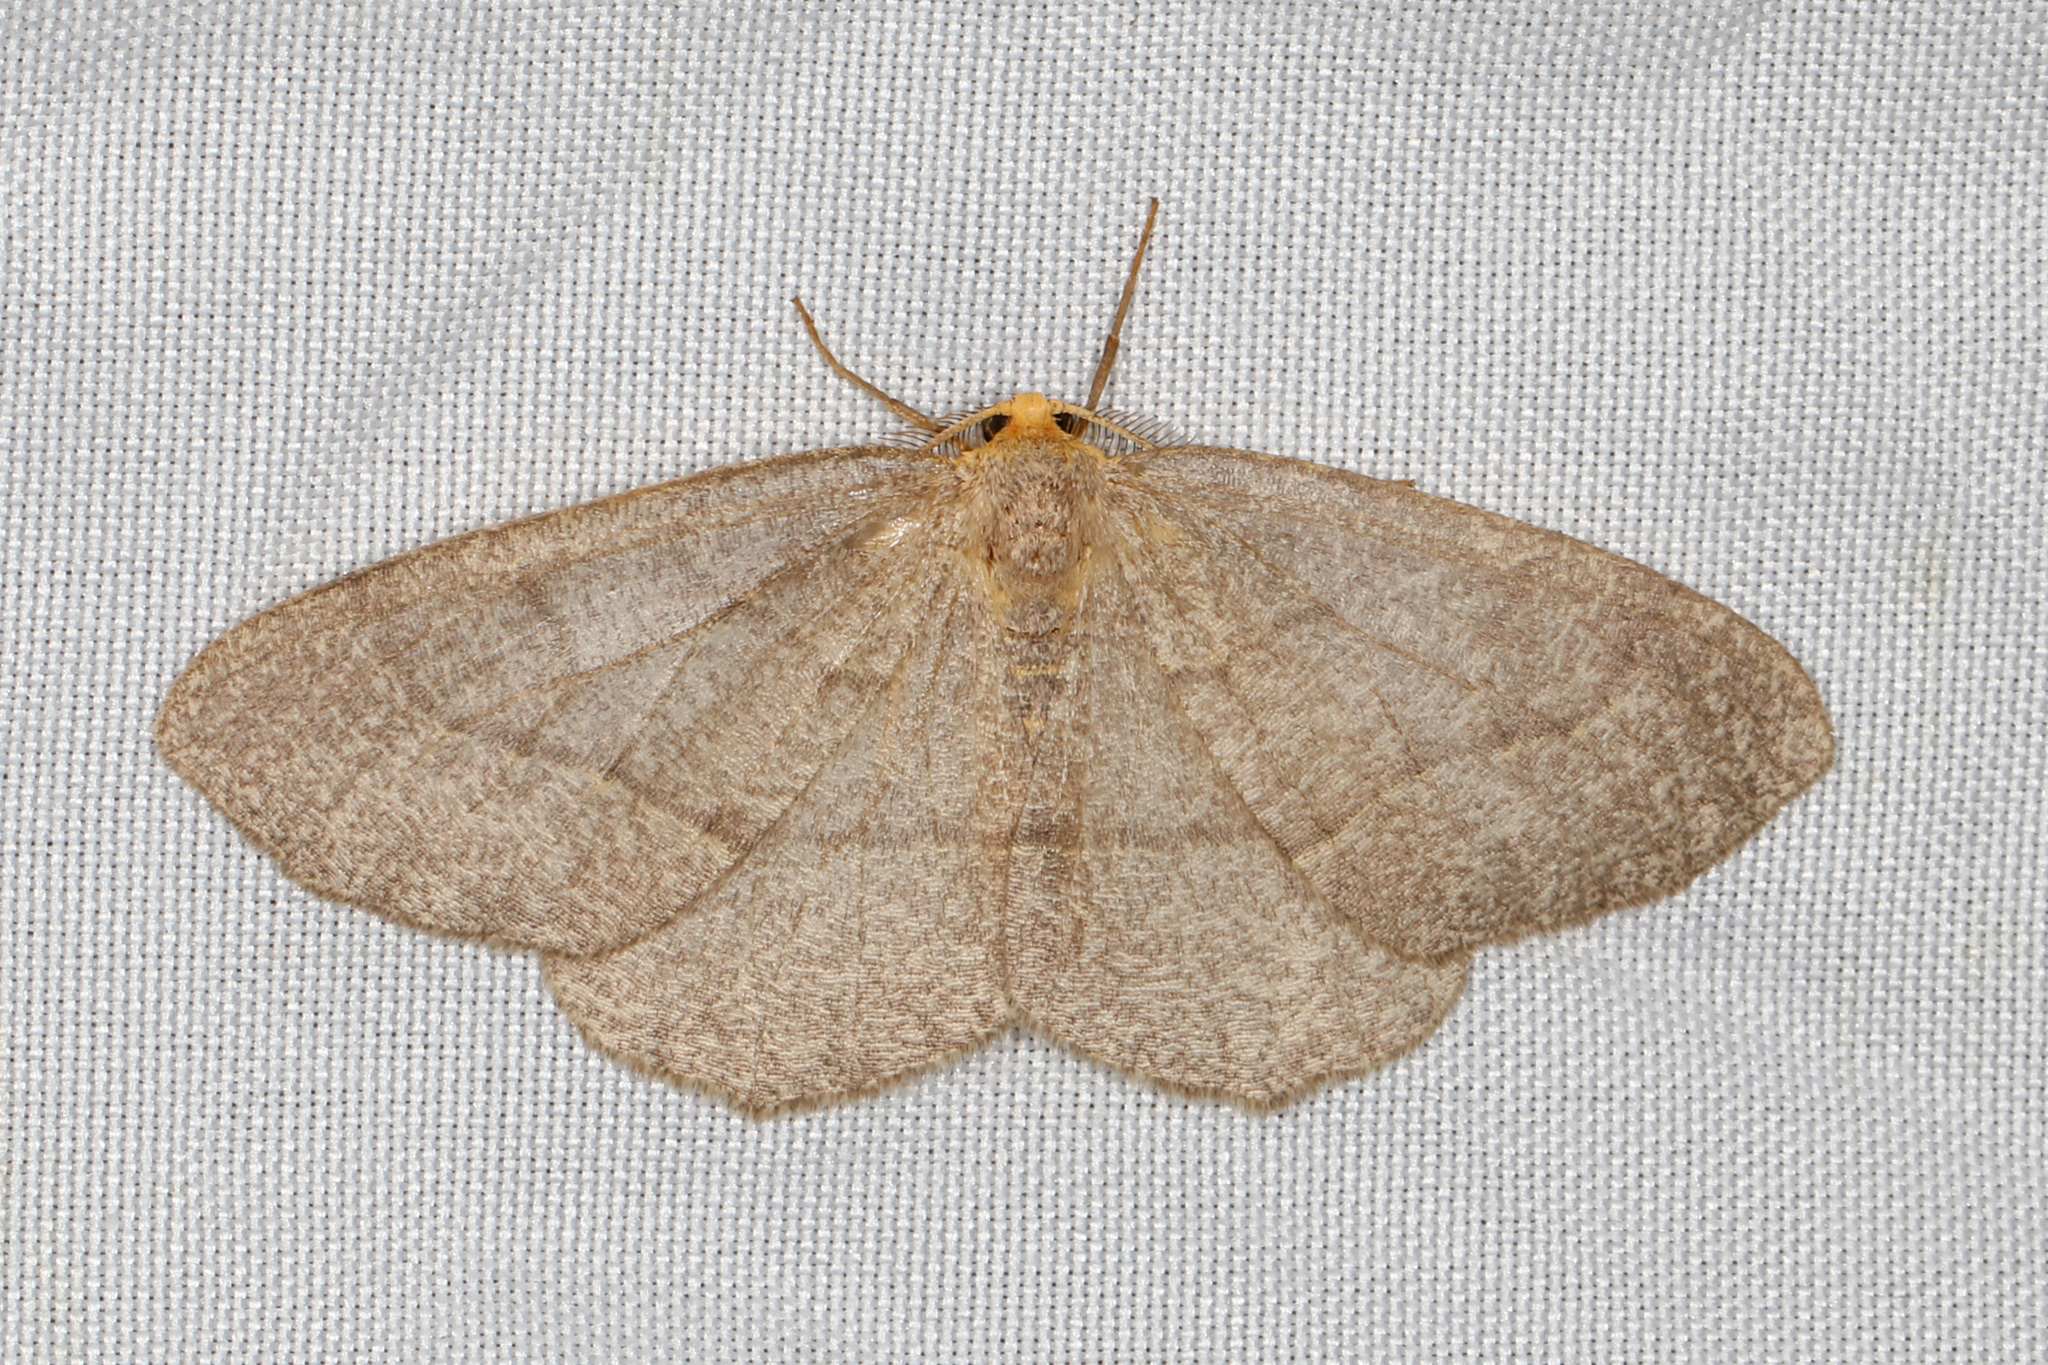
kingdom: Animalia
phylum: Arthropoda
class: Insecta
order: Lepidoptera
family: Geometridae
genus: Lambdina
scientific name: Lambdina fervidaria
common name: Curve-lined looper moth
